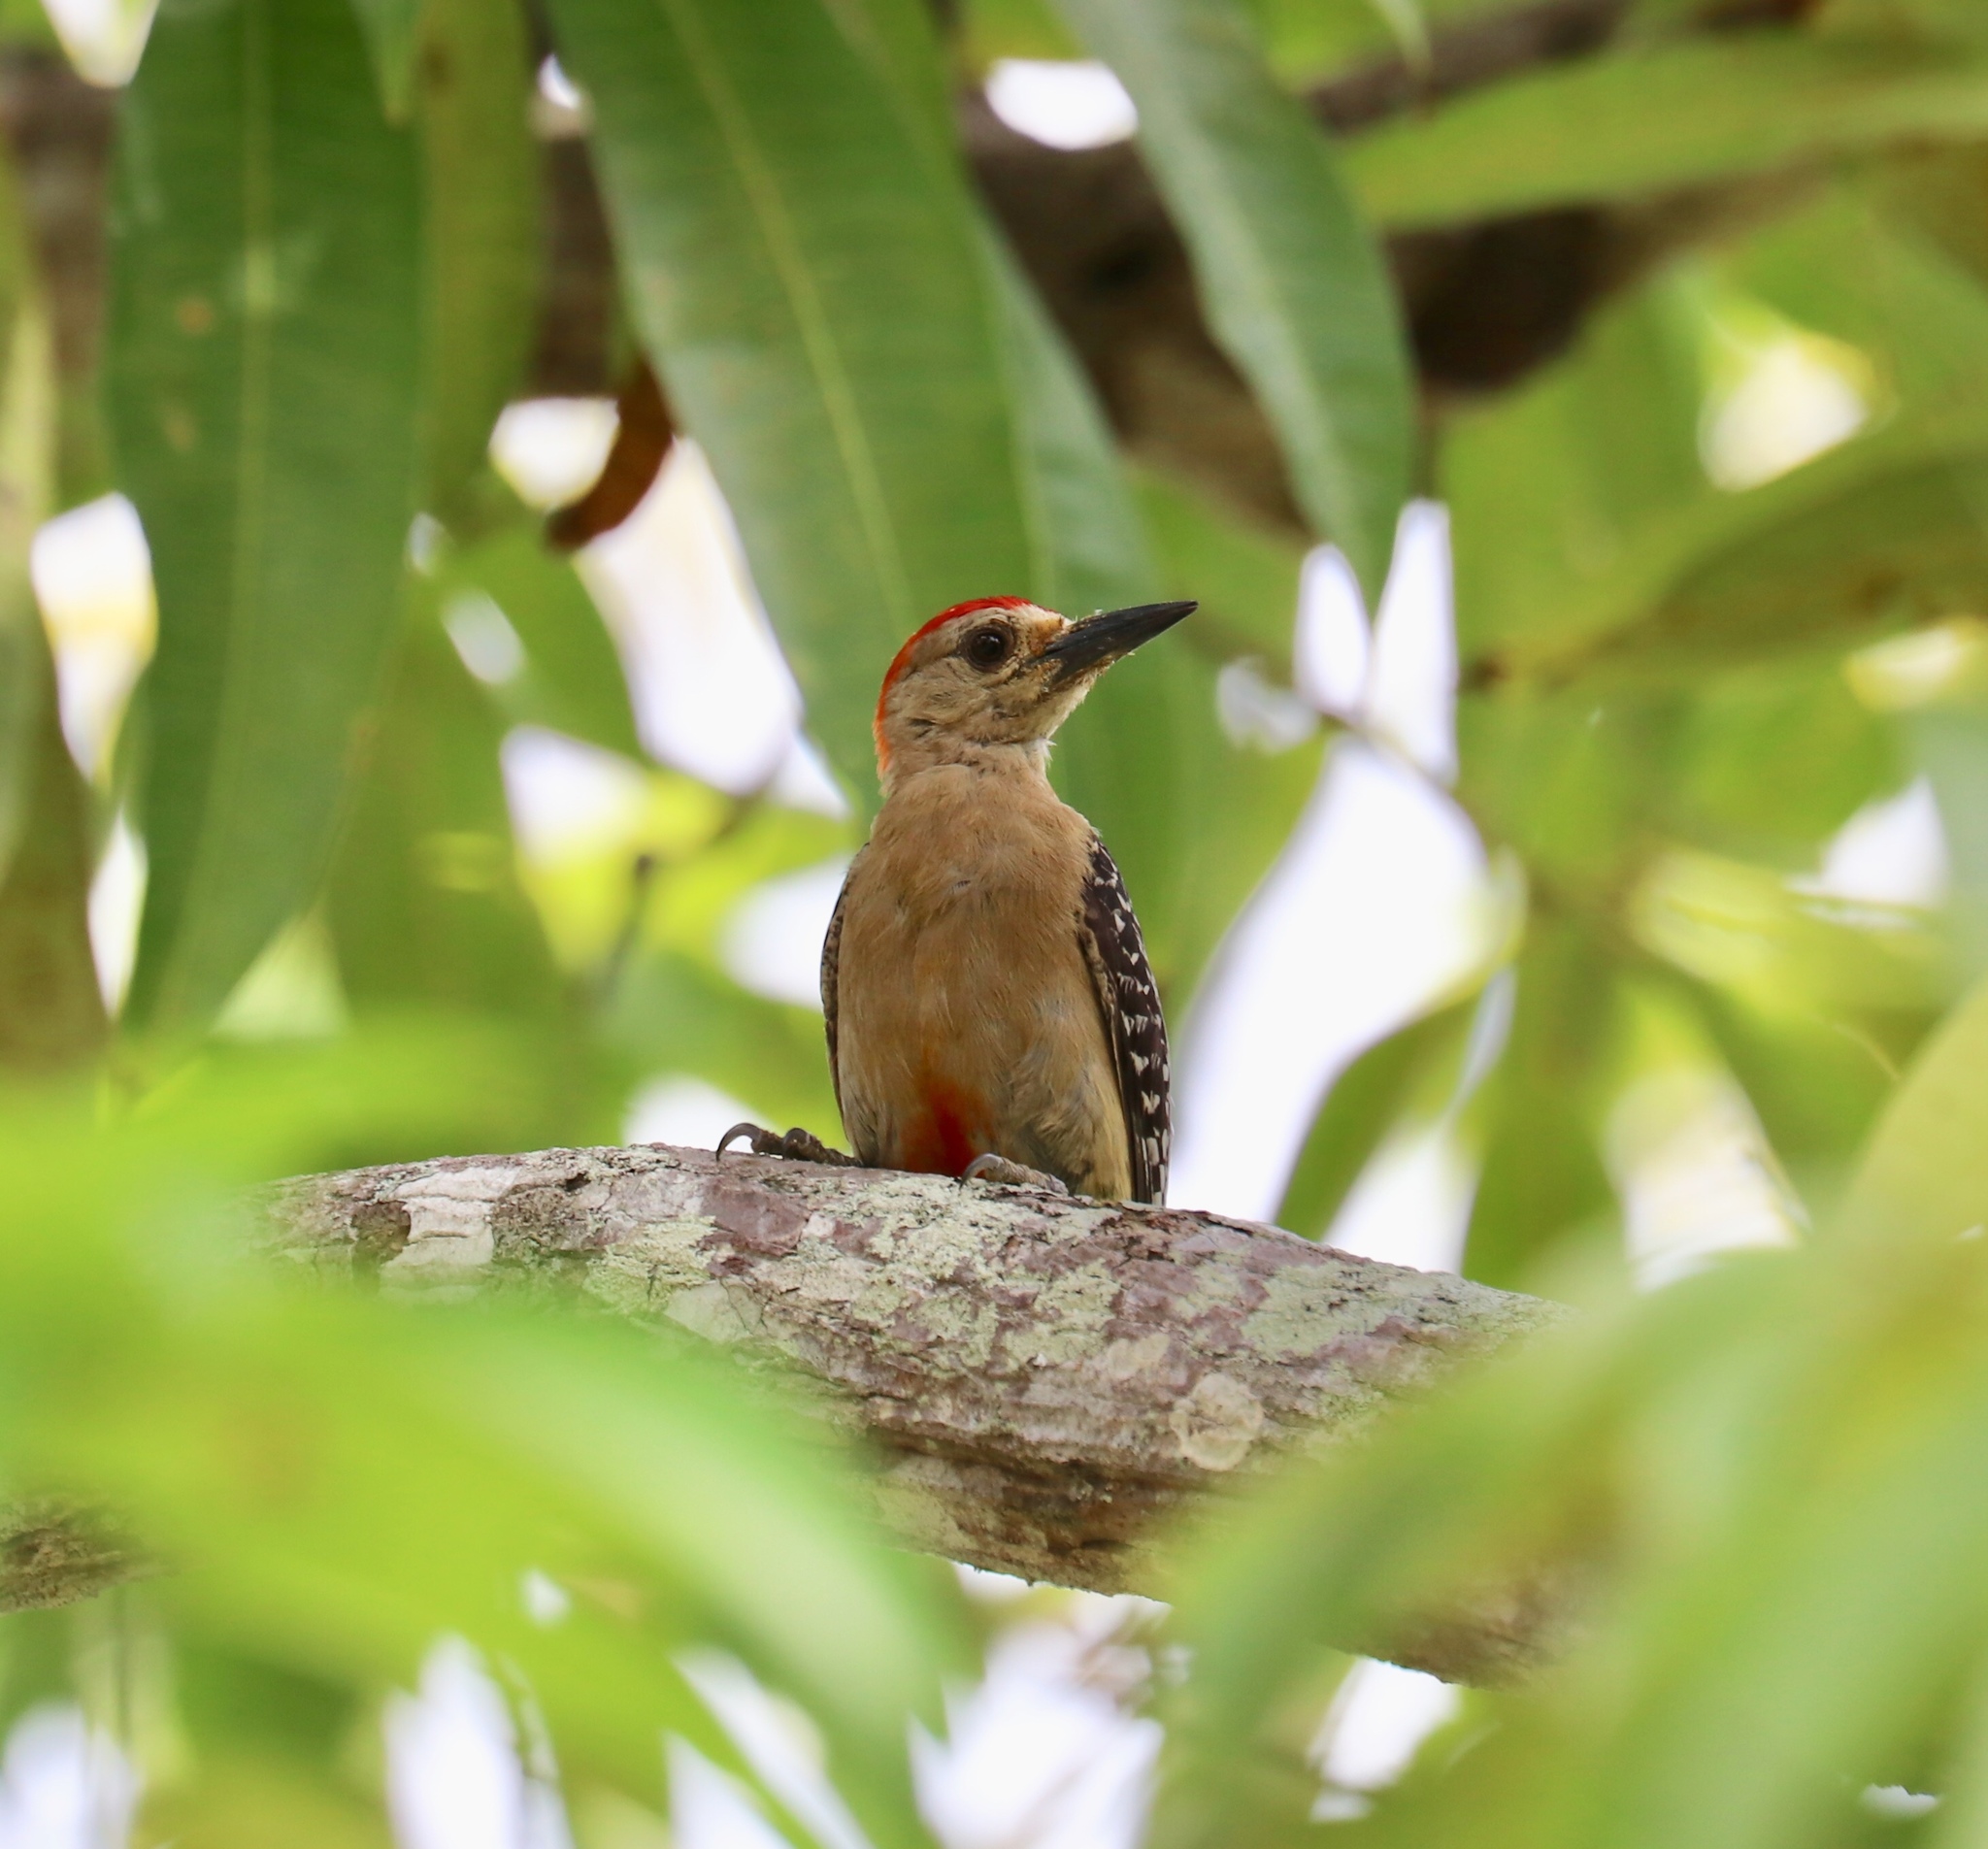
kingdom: Animalia
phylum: Chordata
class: Aves
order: Piciformes
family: Picidae
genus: Melanerpes
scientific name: Melanerpes rubricapillus
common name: Red-crowned woodpecker
